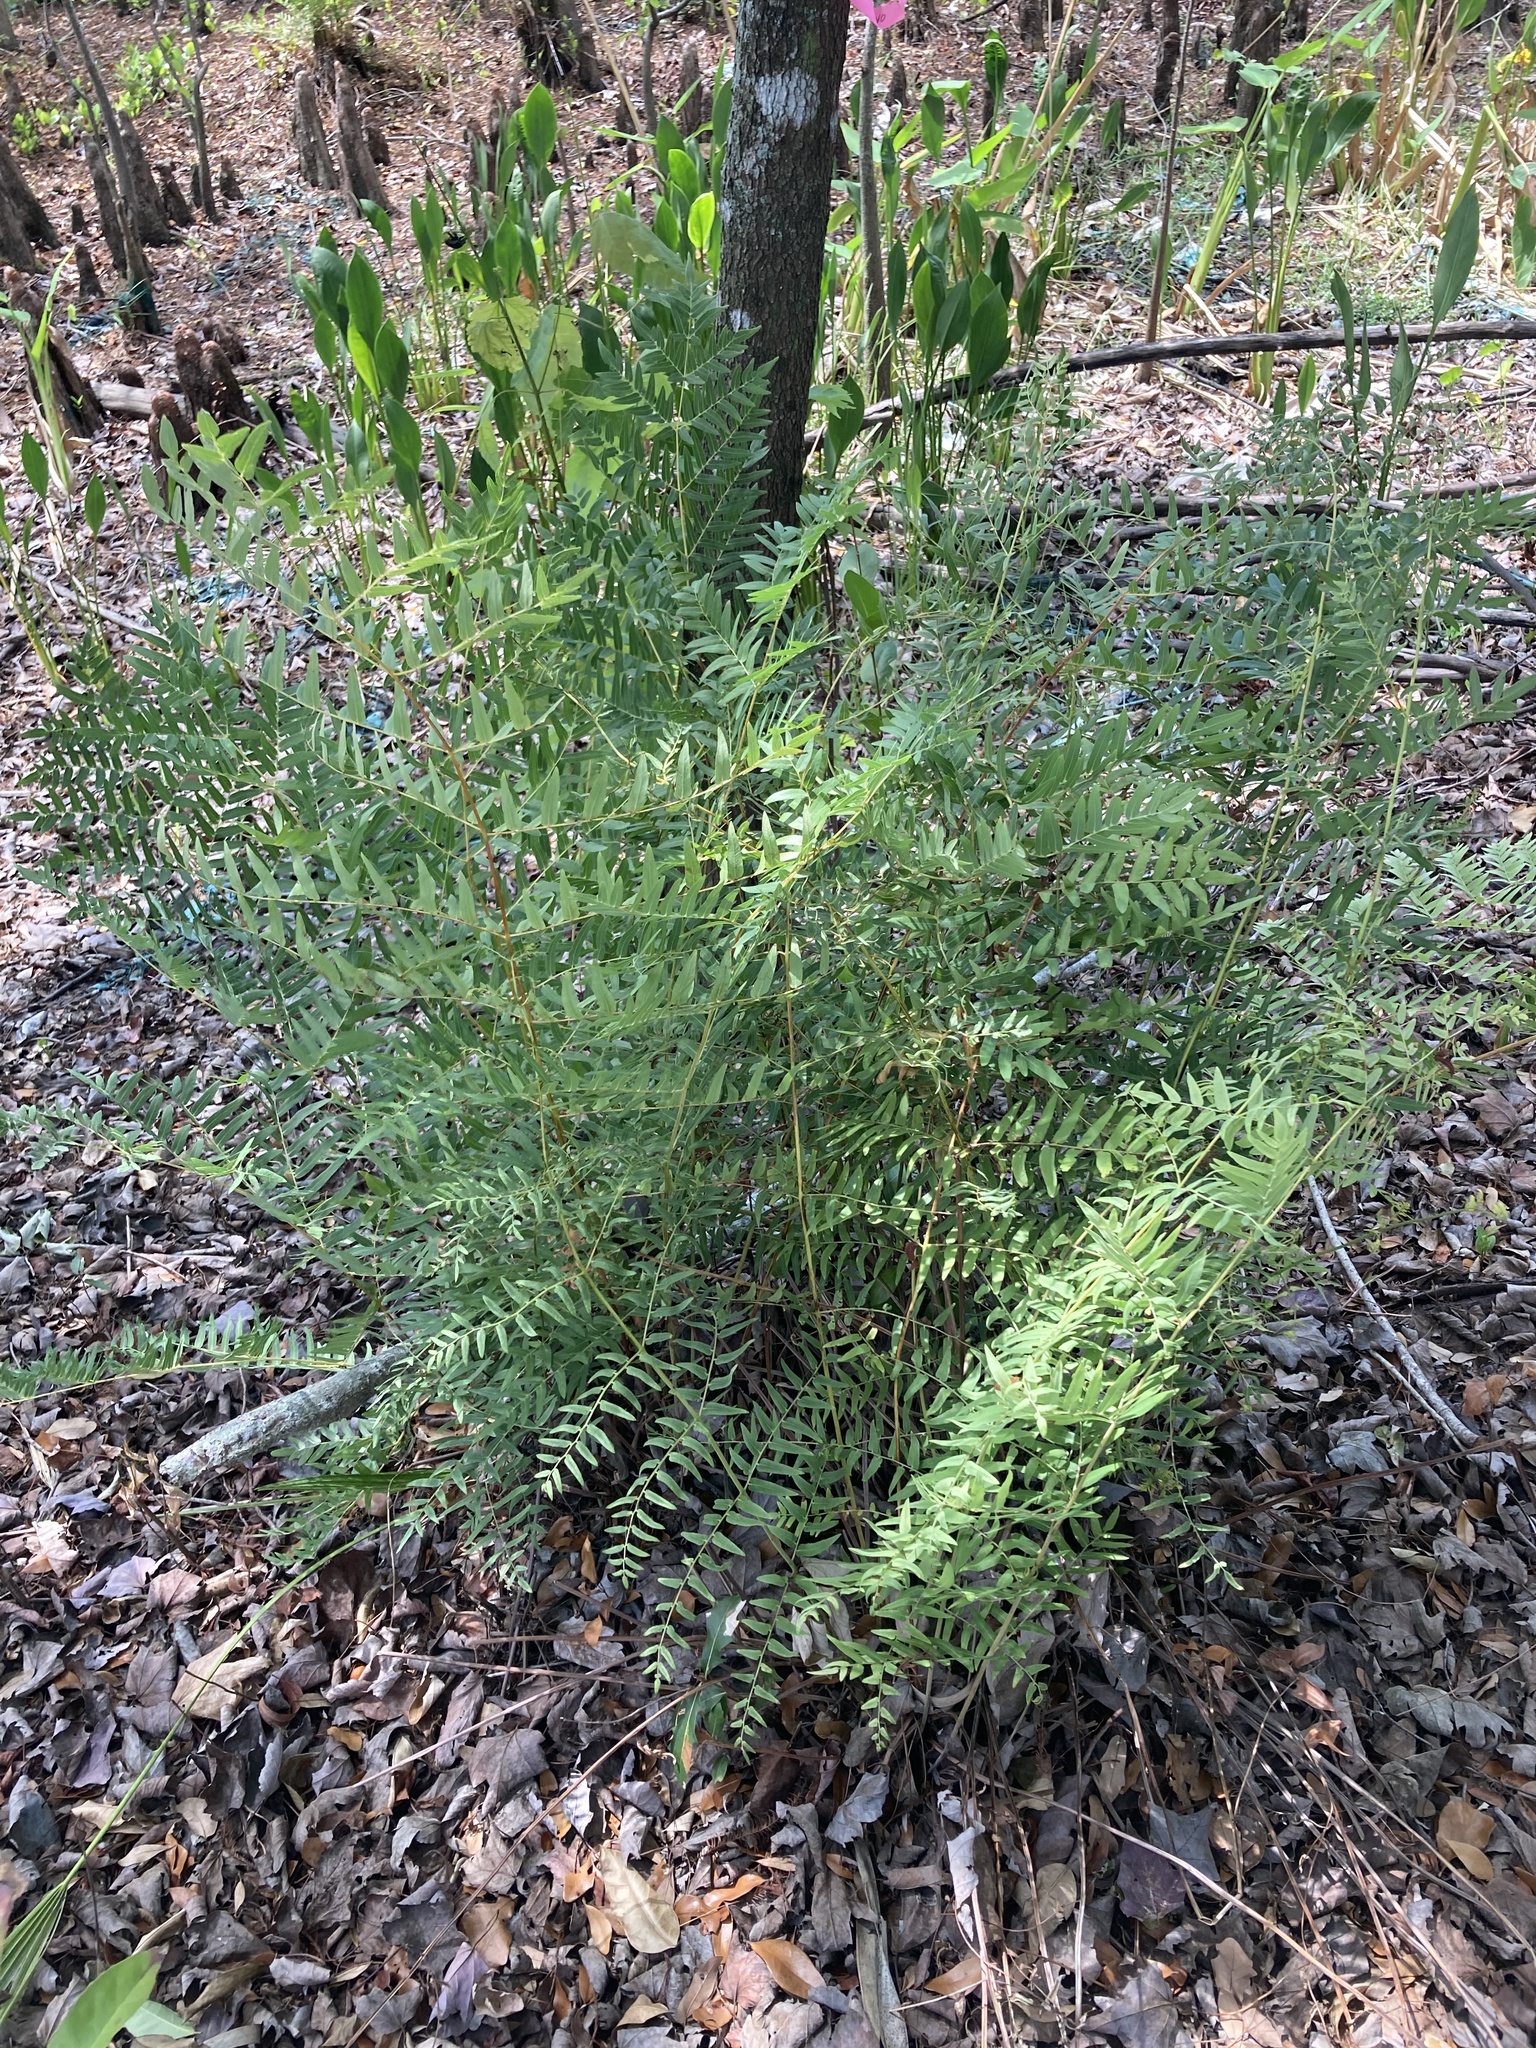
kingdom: Plantae
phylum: Tracheophyta
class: Polypodiopsida
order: Osmundales
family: Osmundaceae
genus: Osmunda
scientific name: Osmunda spectabilis
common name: American royal fern
